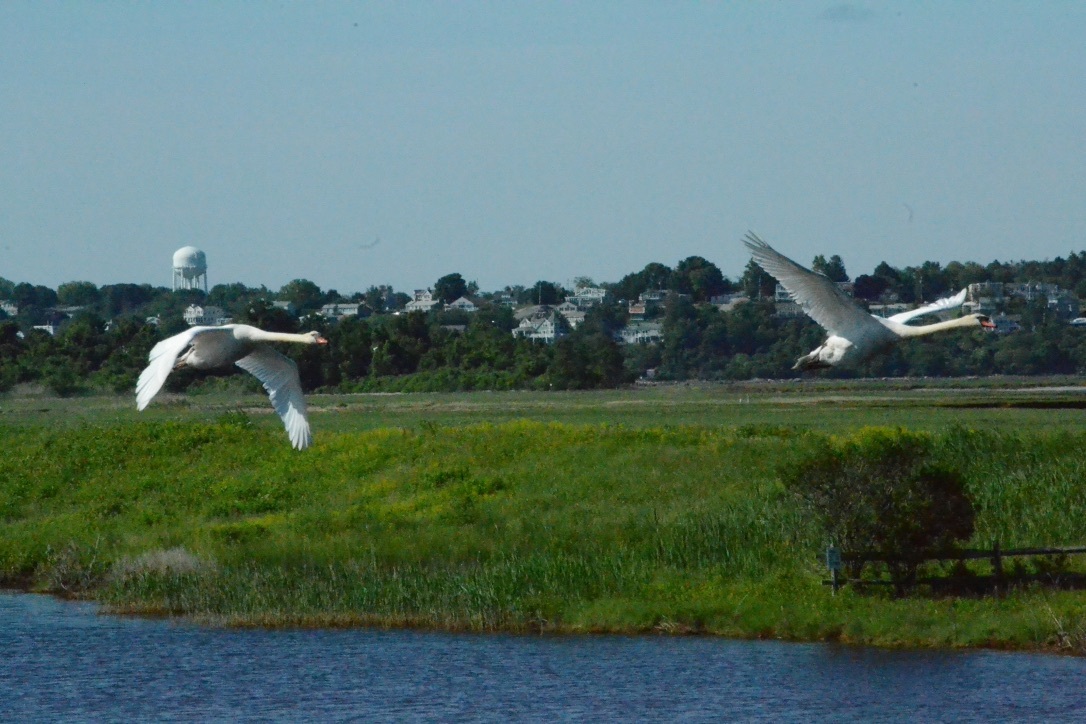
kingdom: Animalia
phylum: Chordata
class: Aves
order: Anseriformes
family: Anatidae
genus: Cygnus
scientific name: Cygnus olor
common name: Mute swan
